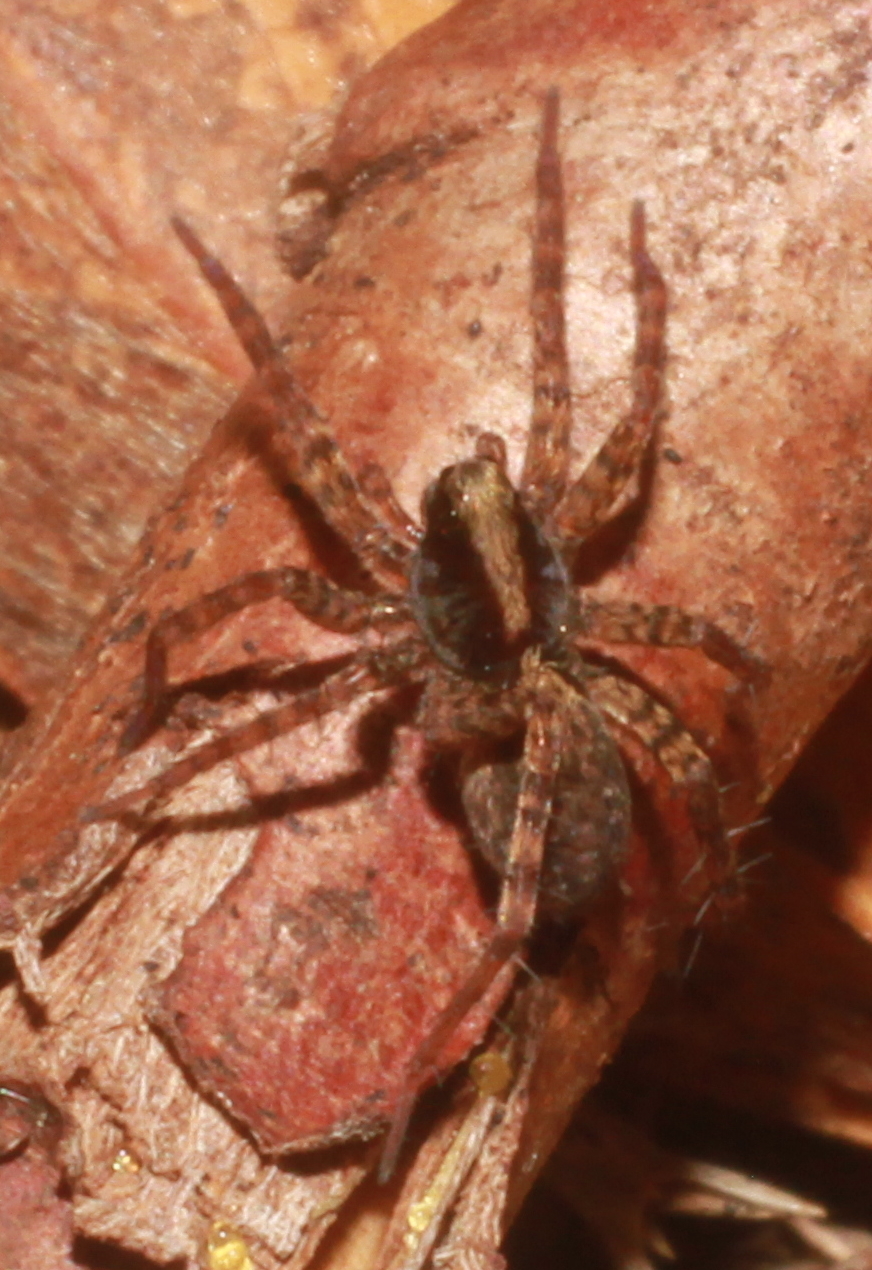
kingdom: Animalia
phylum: Arthropoda
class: Arachnida
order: Araneae
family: Lycosidae
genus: Pardosa
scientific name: Pardosa
